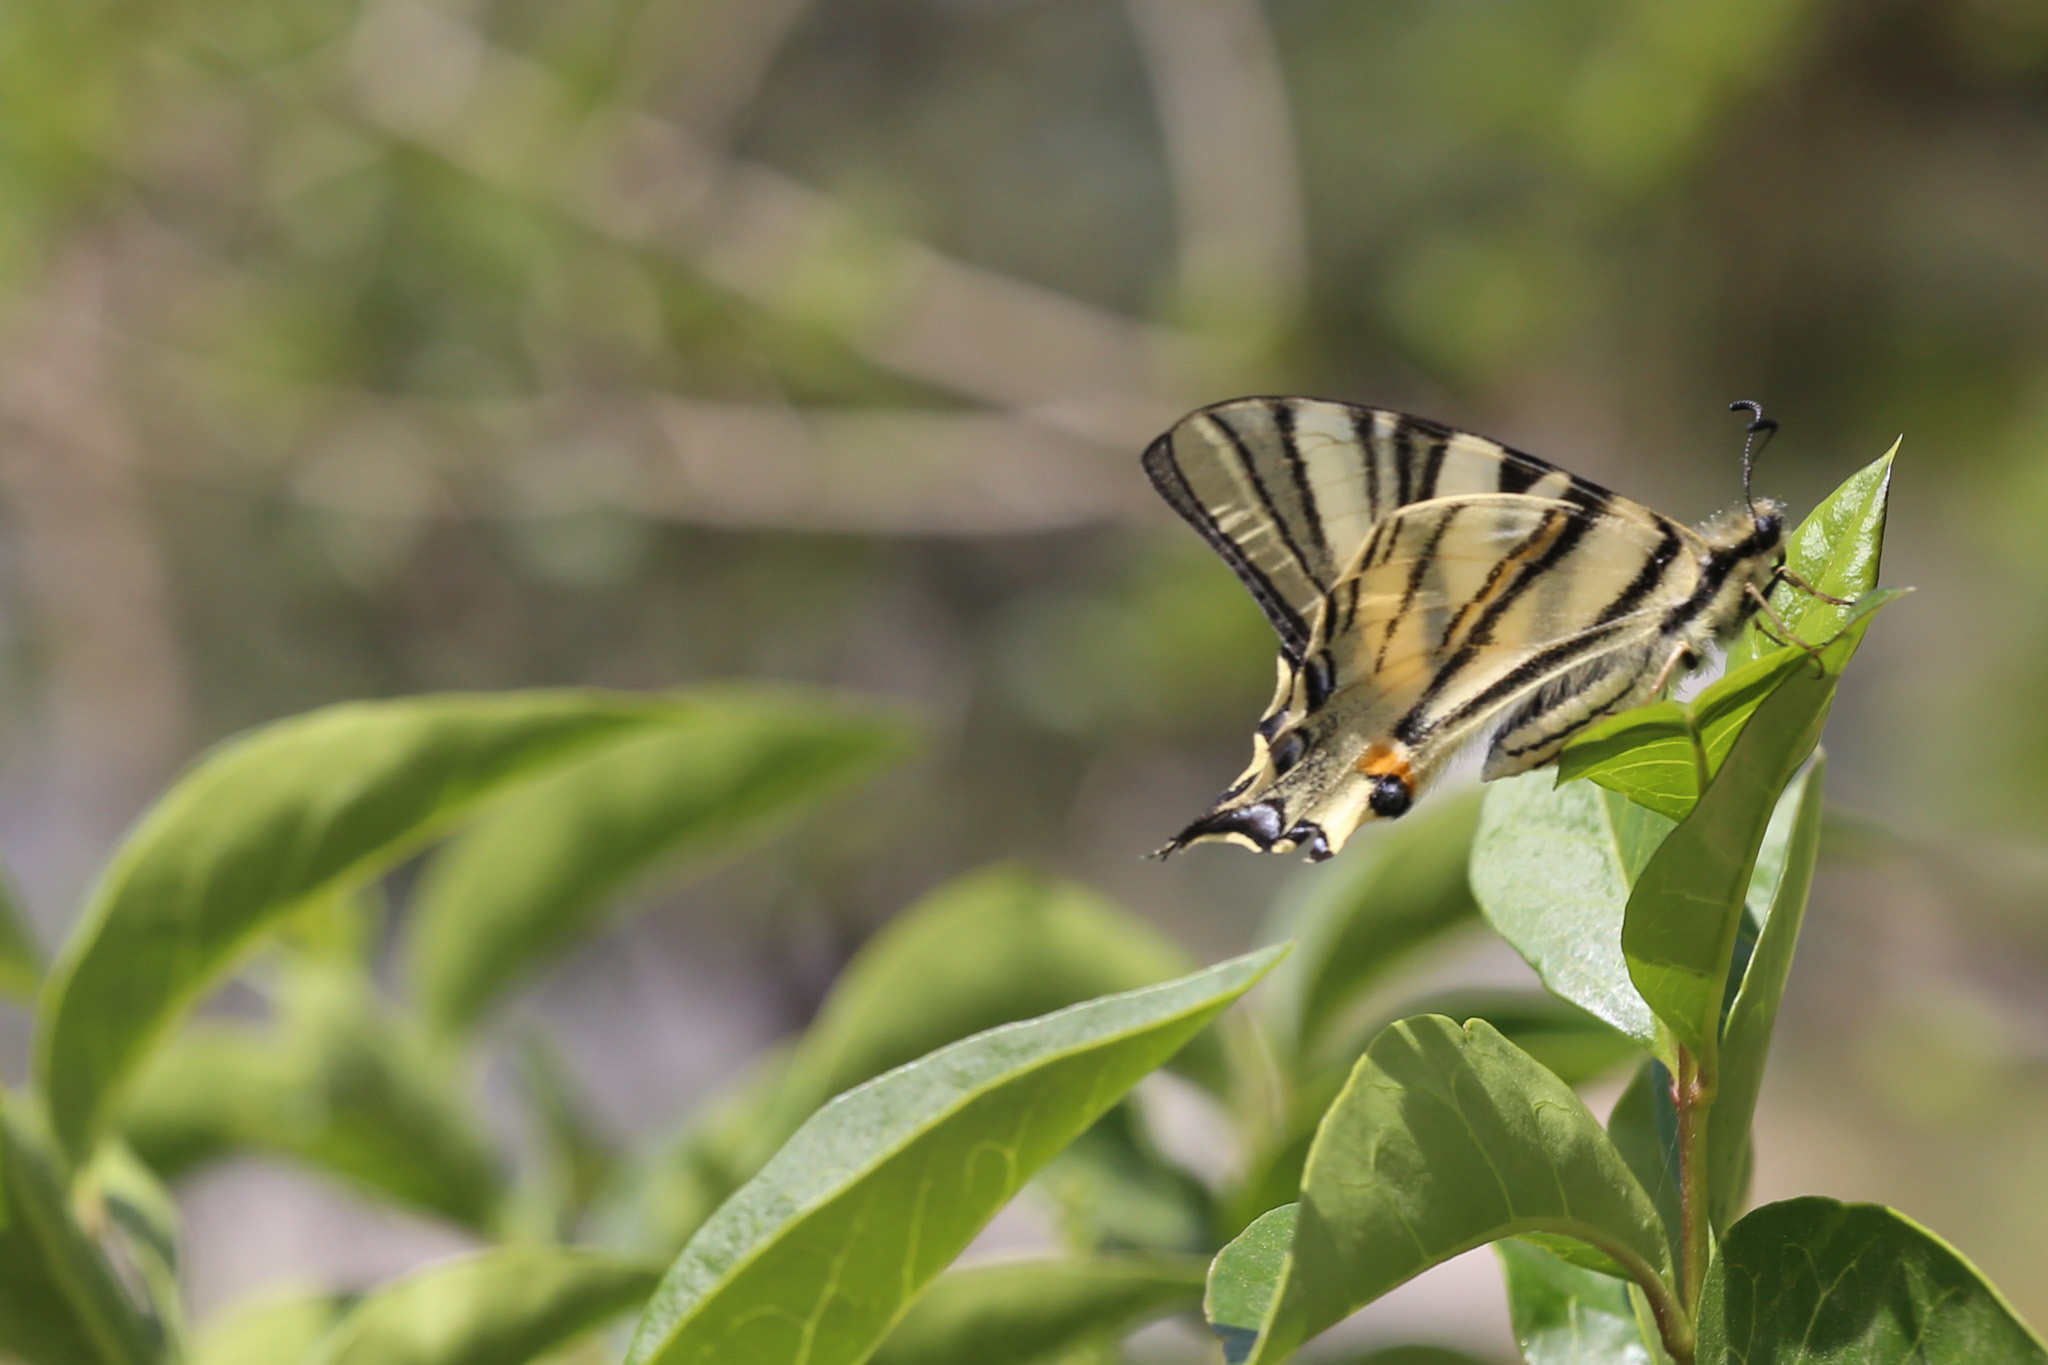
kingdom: Animalia
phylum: Arthropoda
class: Insecta
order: Lepidoptera
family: Papilionidae
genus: Iphiclides
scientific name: Iphiclides podalirius
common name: Scarce swallowtail
